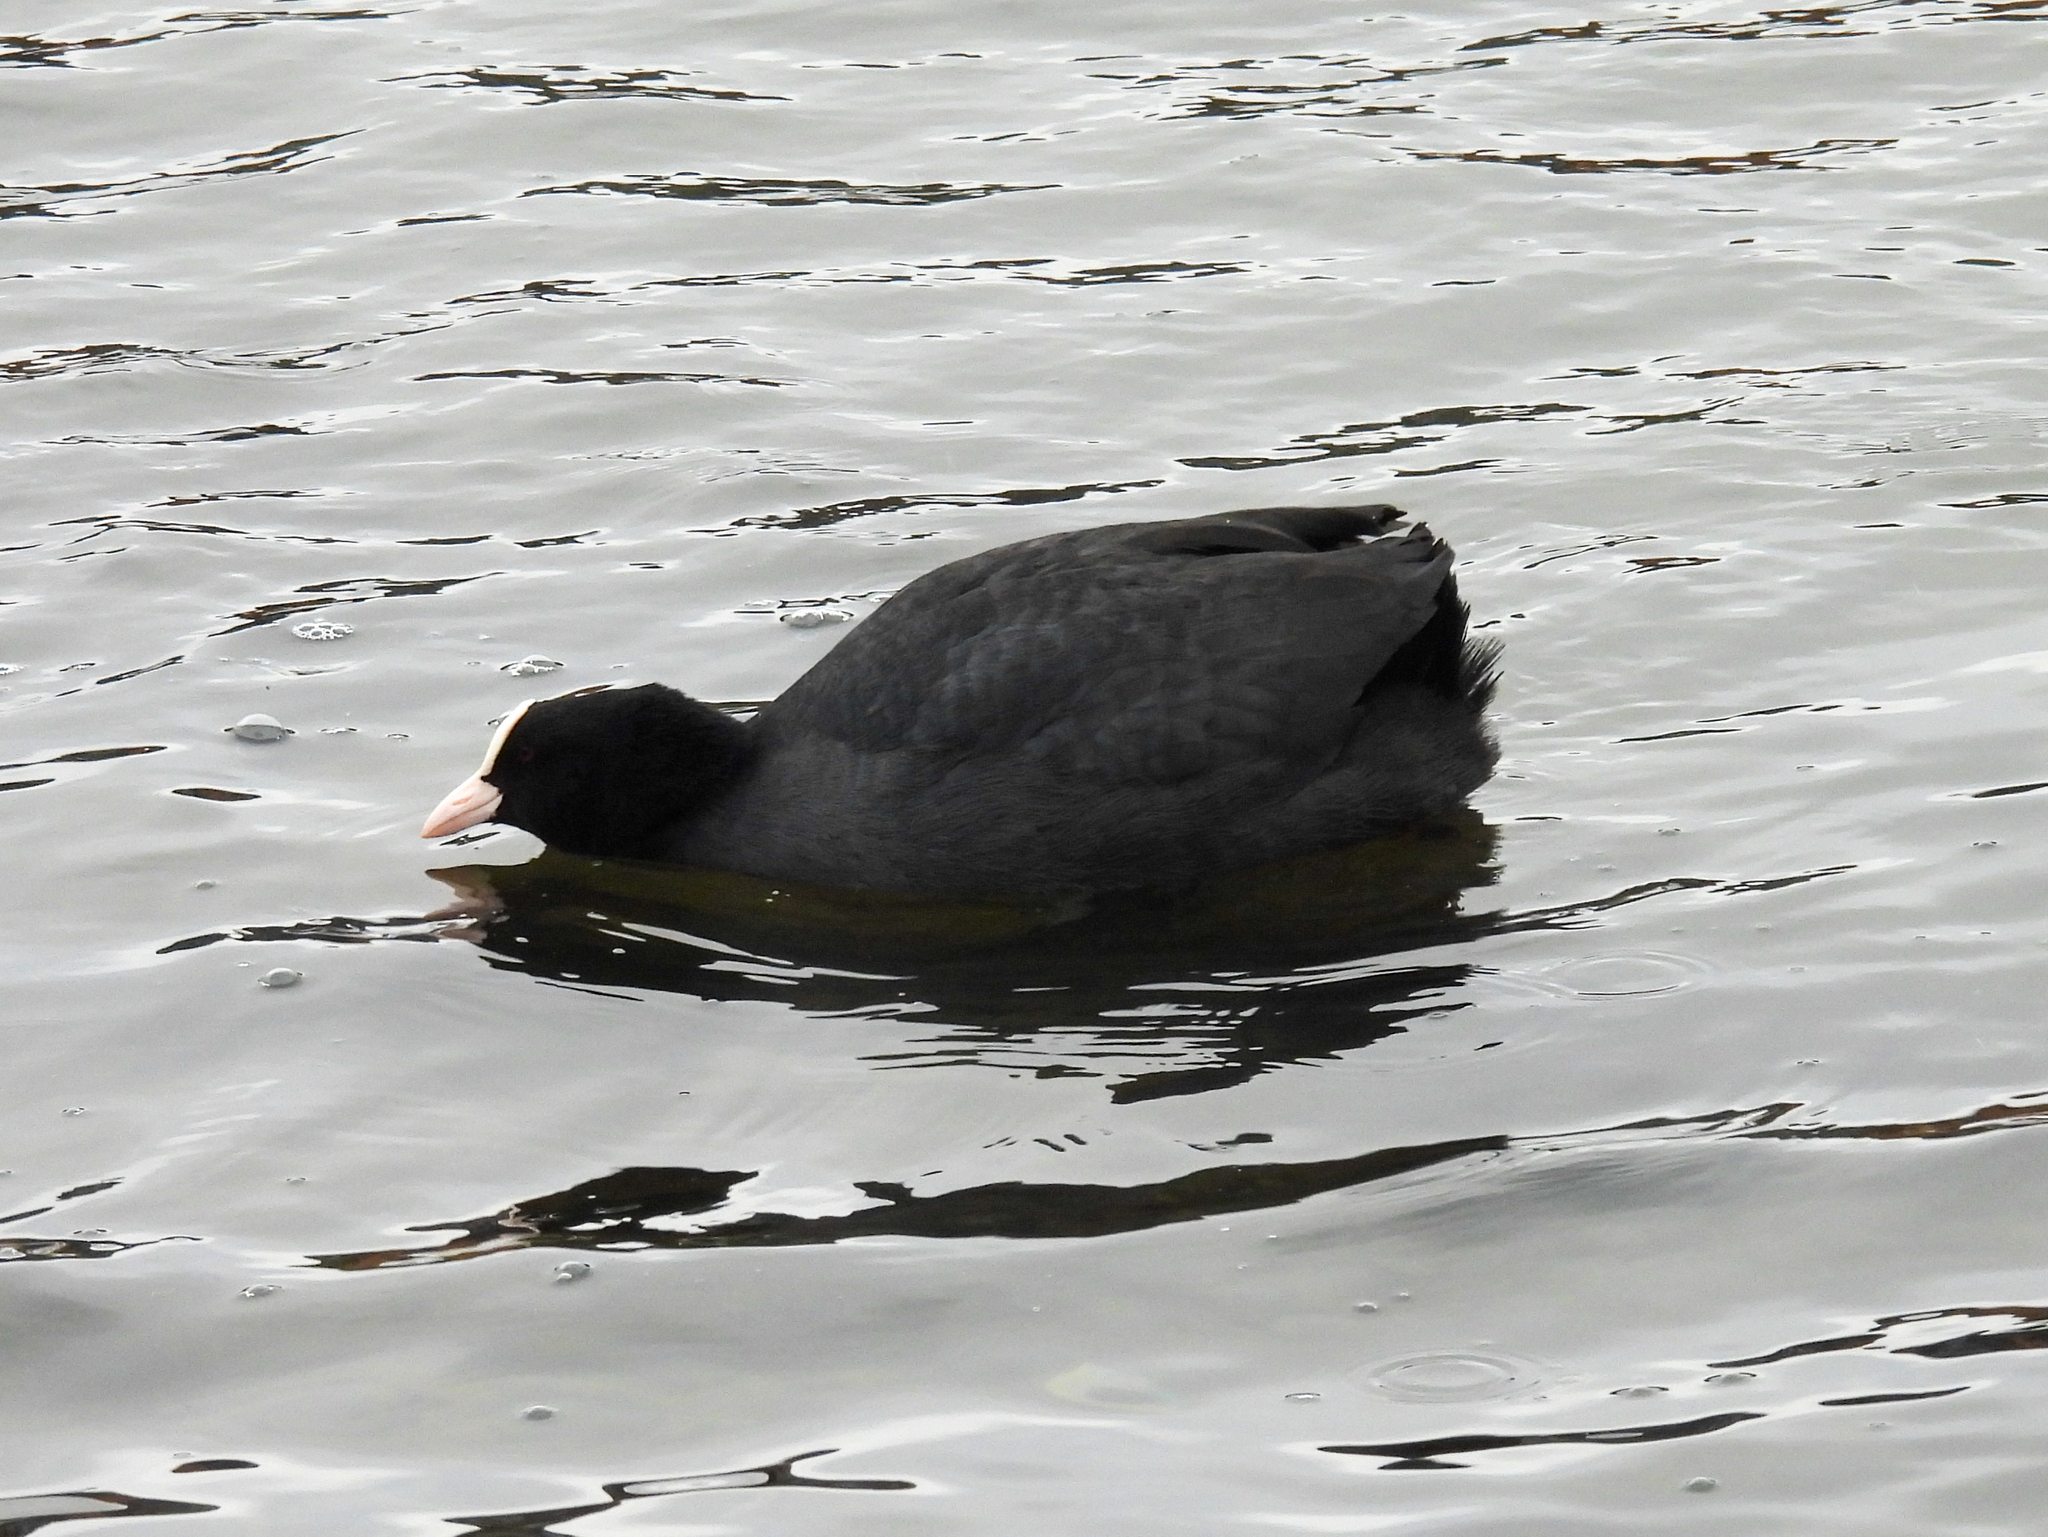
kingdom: Animalia
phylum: Chordata
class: Aves
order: Gruiformes
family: Rallidae
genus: Fulica
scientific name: Fulica atra
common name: Eurasian coot
